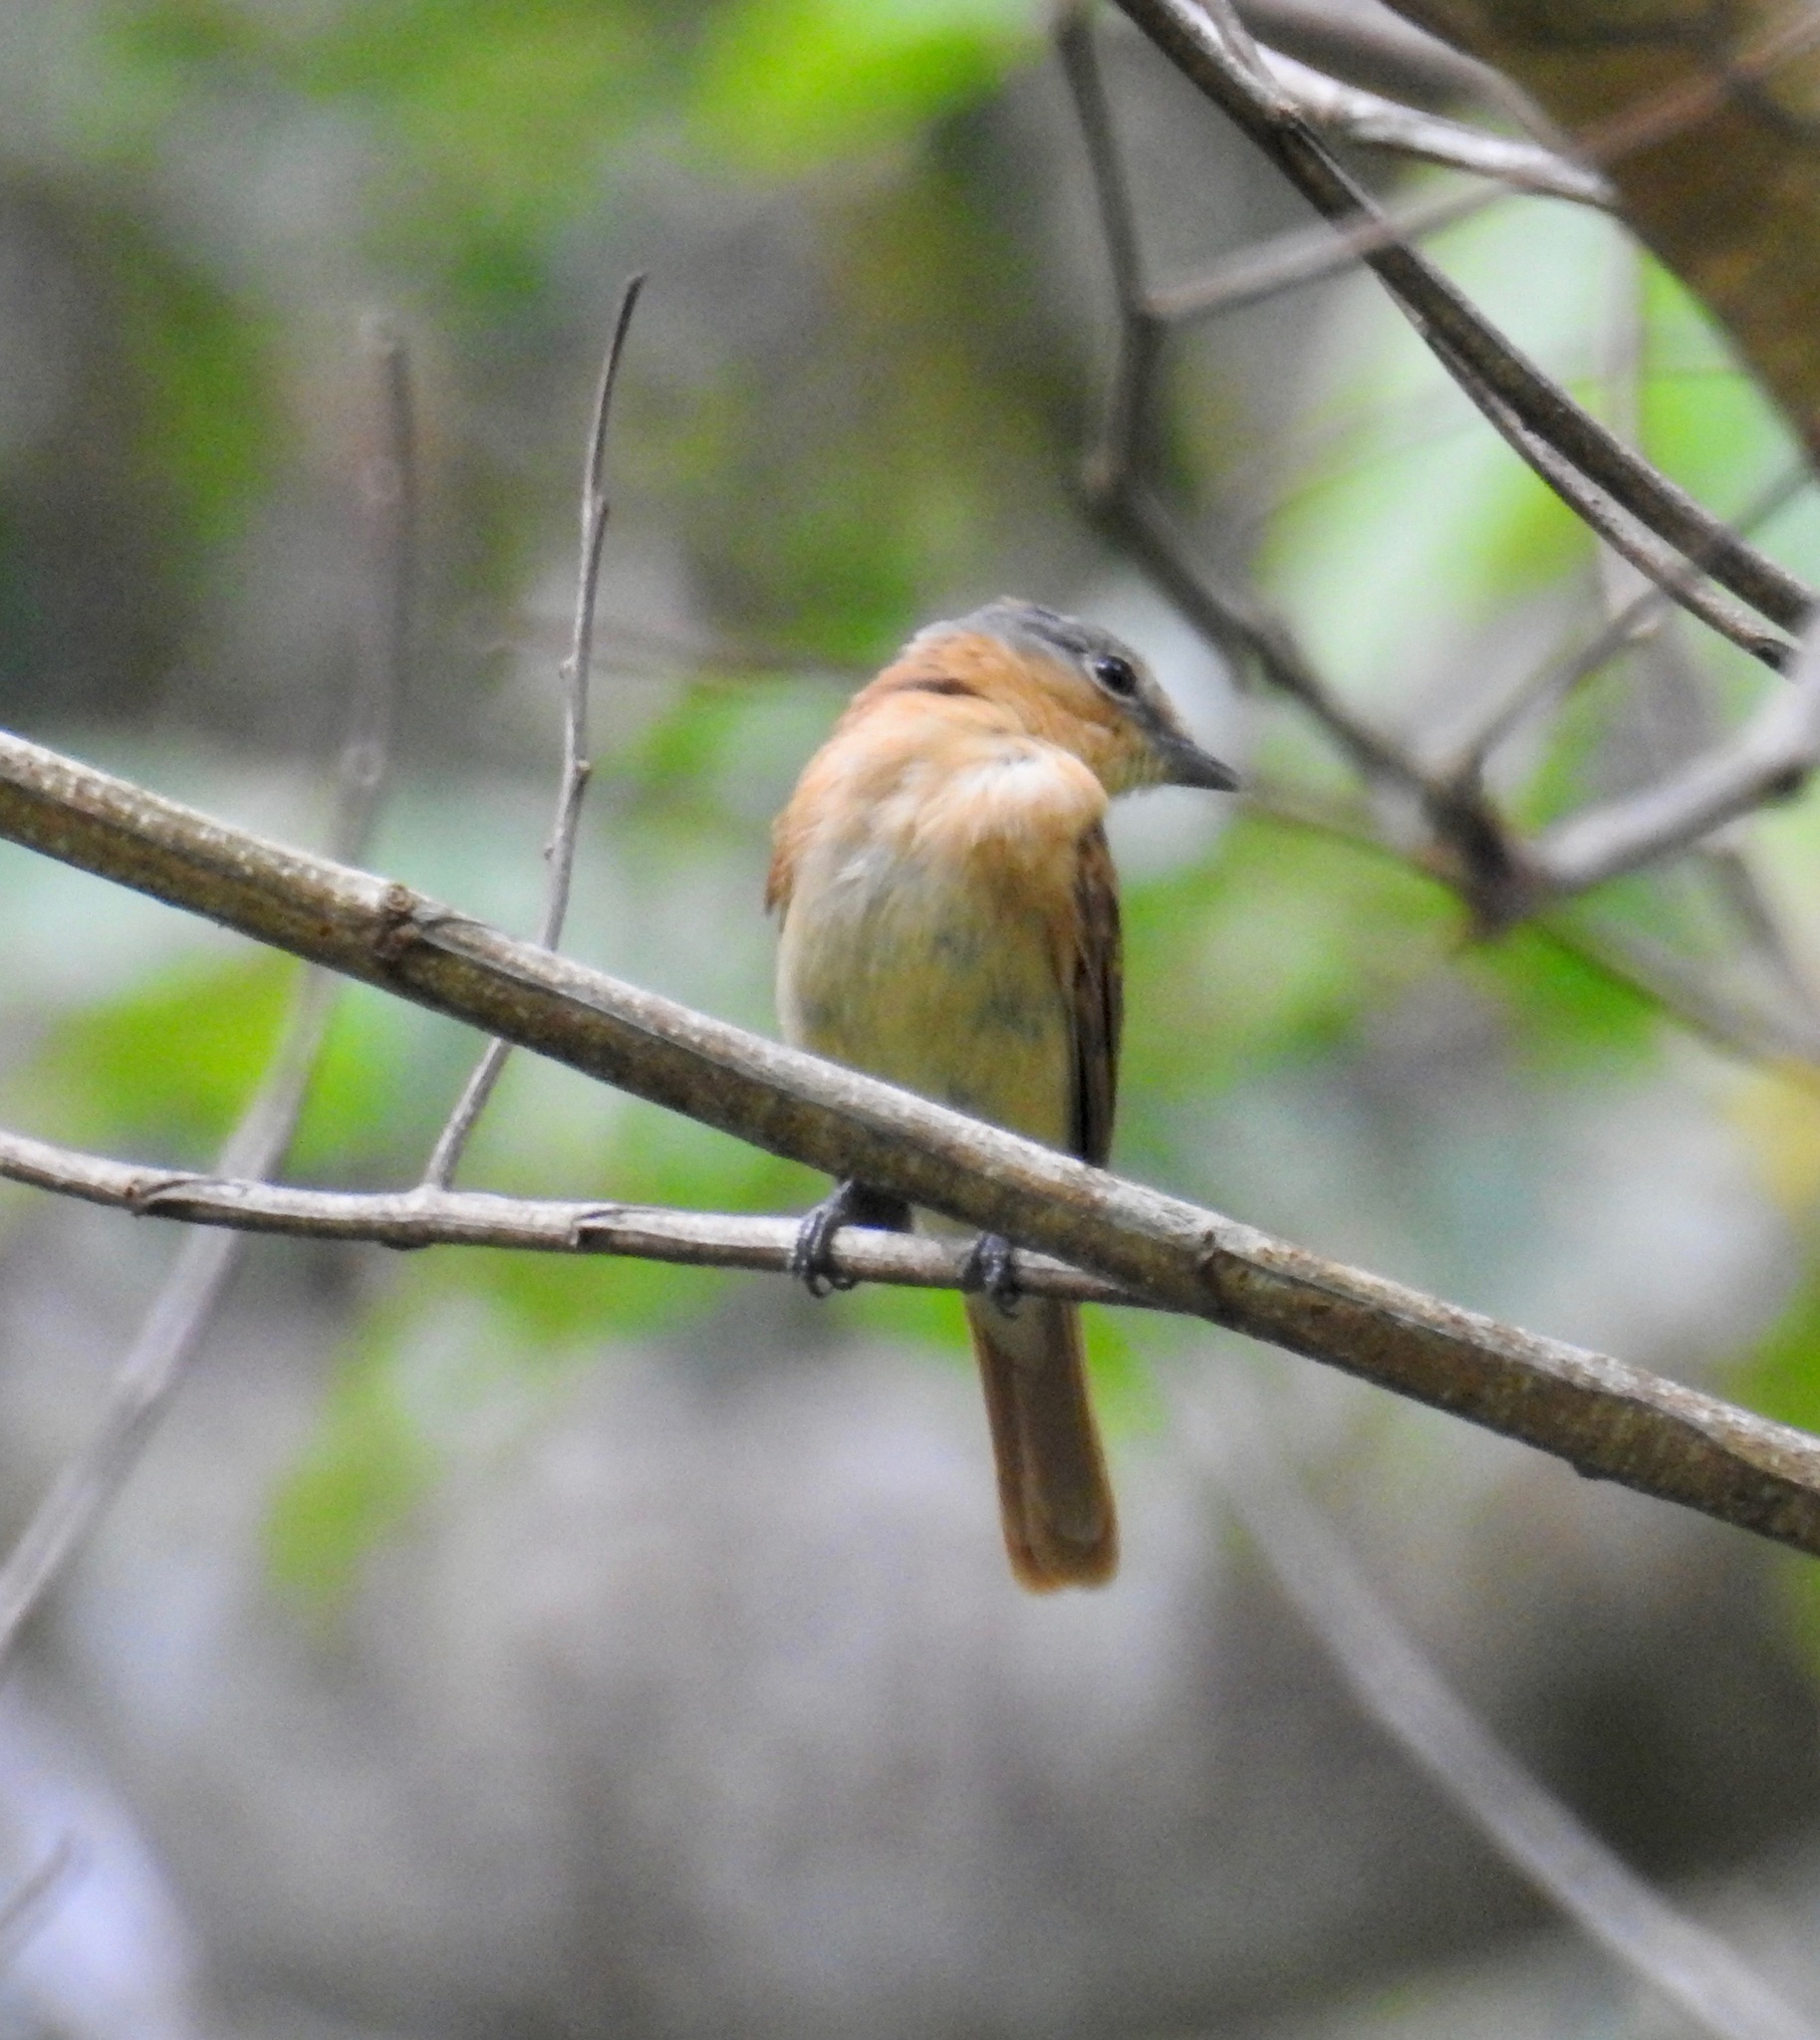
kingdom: Animalia
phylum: Chordata
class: Aves
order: Passeriformes
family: Cotingidae
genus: Pachyramphus
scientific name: Pachyramphus castaneus
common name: Chestnut-crowned becard
